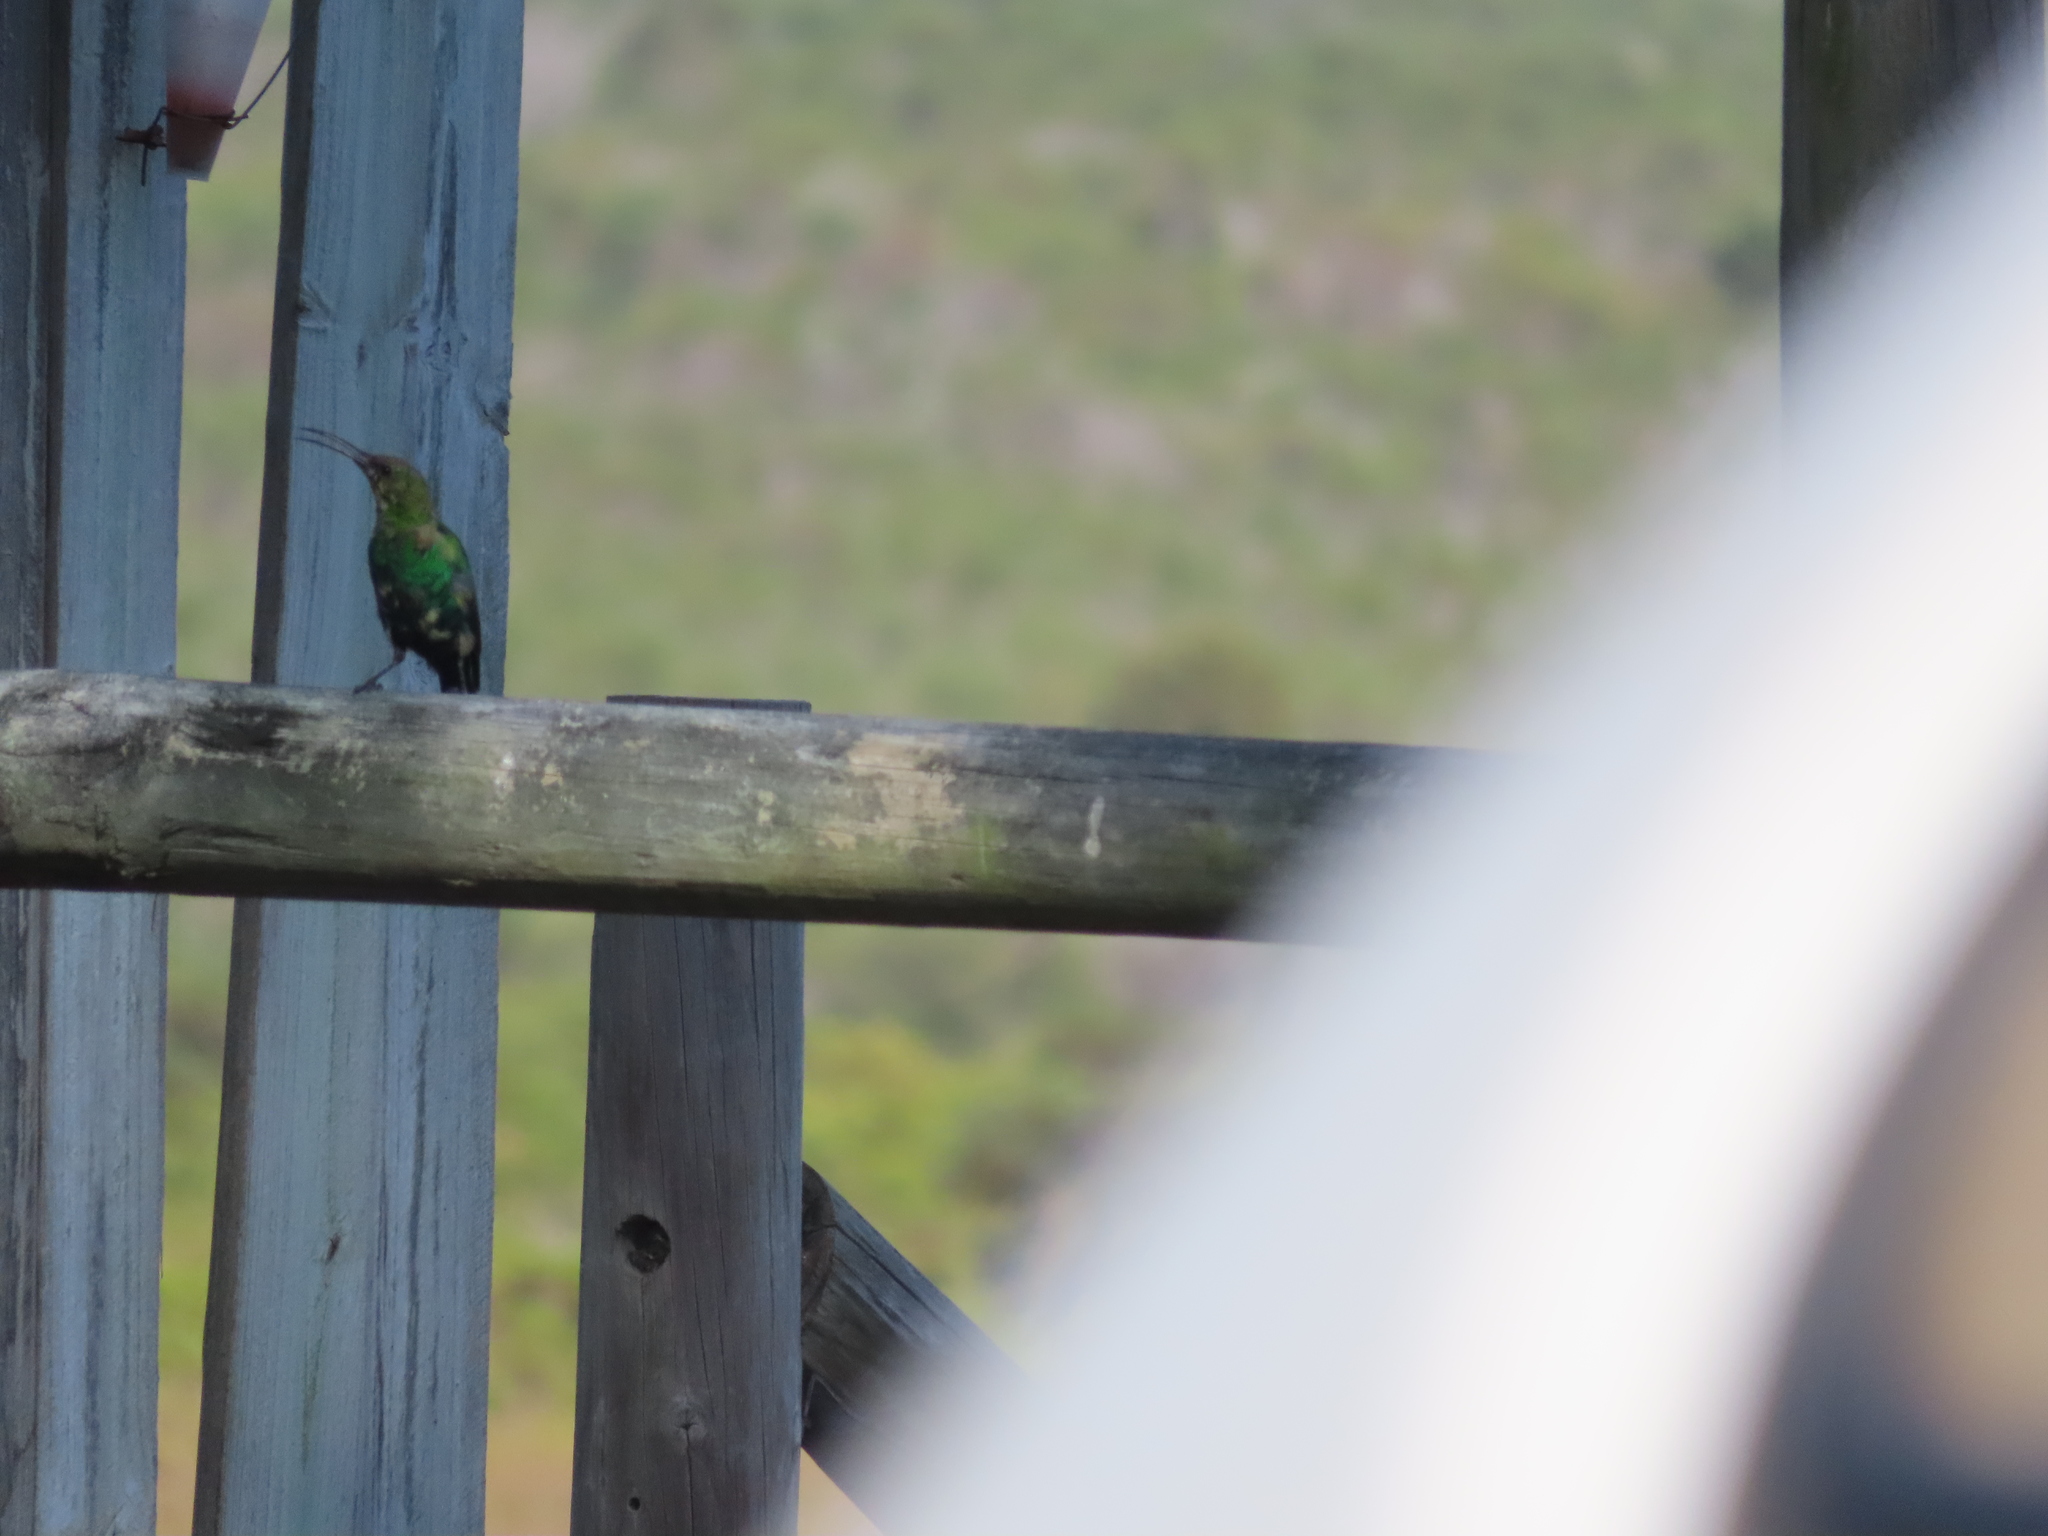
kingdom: Animalia
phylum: Chordata
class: Aves
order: Passeriformes
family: Nectariniidae
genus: Nectarinia
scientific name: Nectarinia famosa
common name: Malachite sunbird
